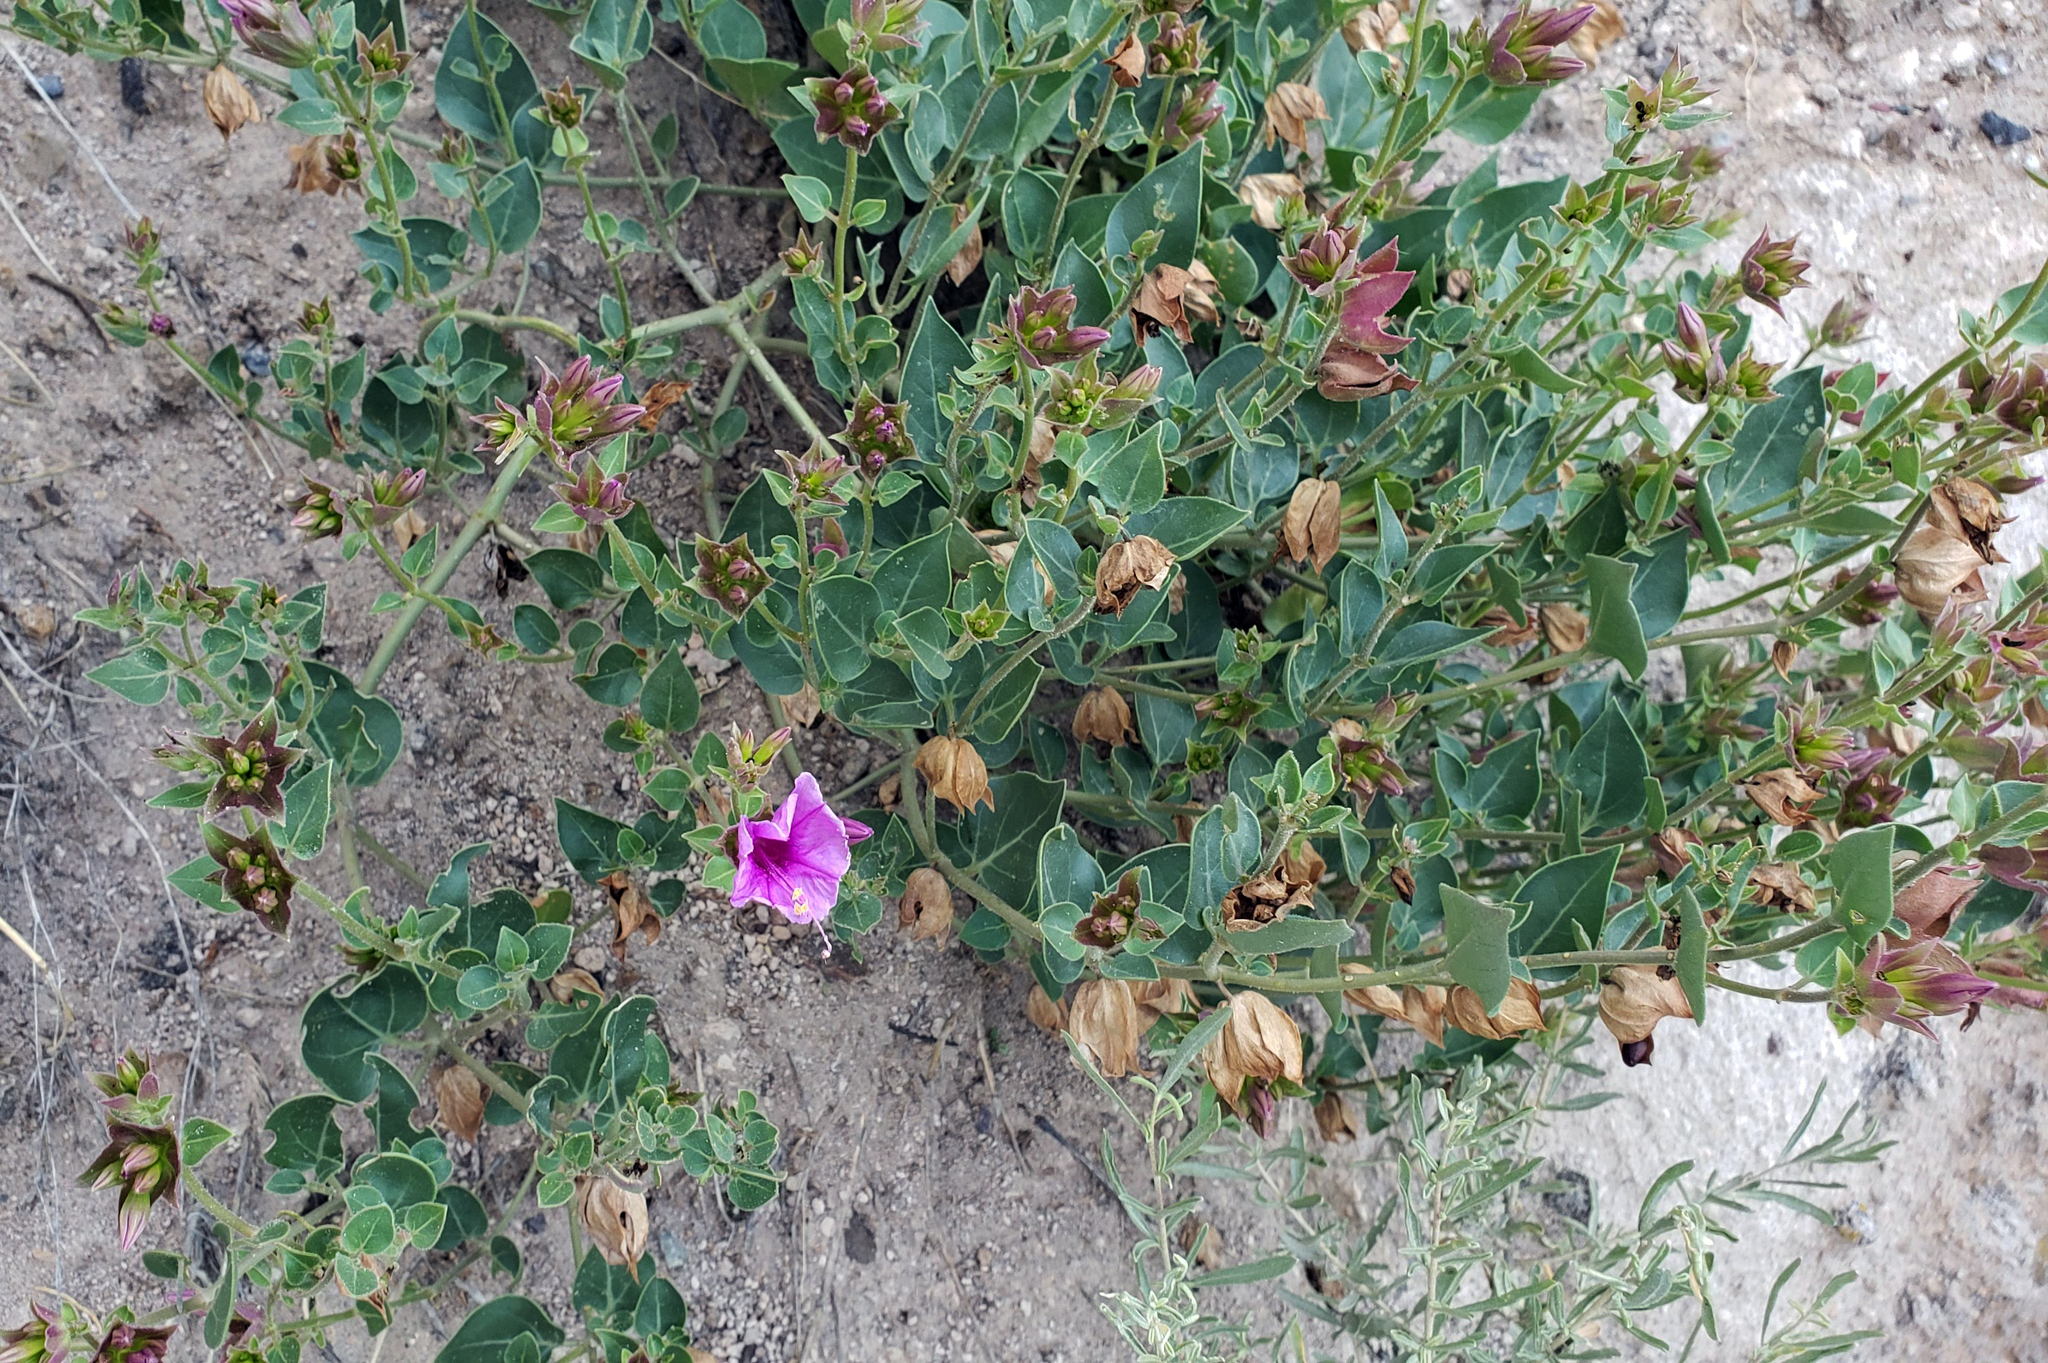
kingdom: Plantae
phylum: Tracheophyta
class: Magnoliopsida
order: Caryophyllales
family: Nyctaginaceae
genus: Mirabilis
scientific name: Mirabilis multiflora
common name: Froebel's four-o'clock
